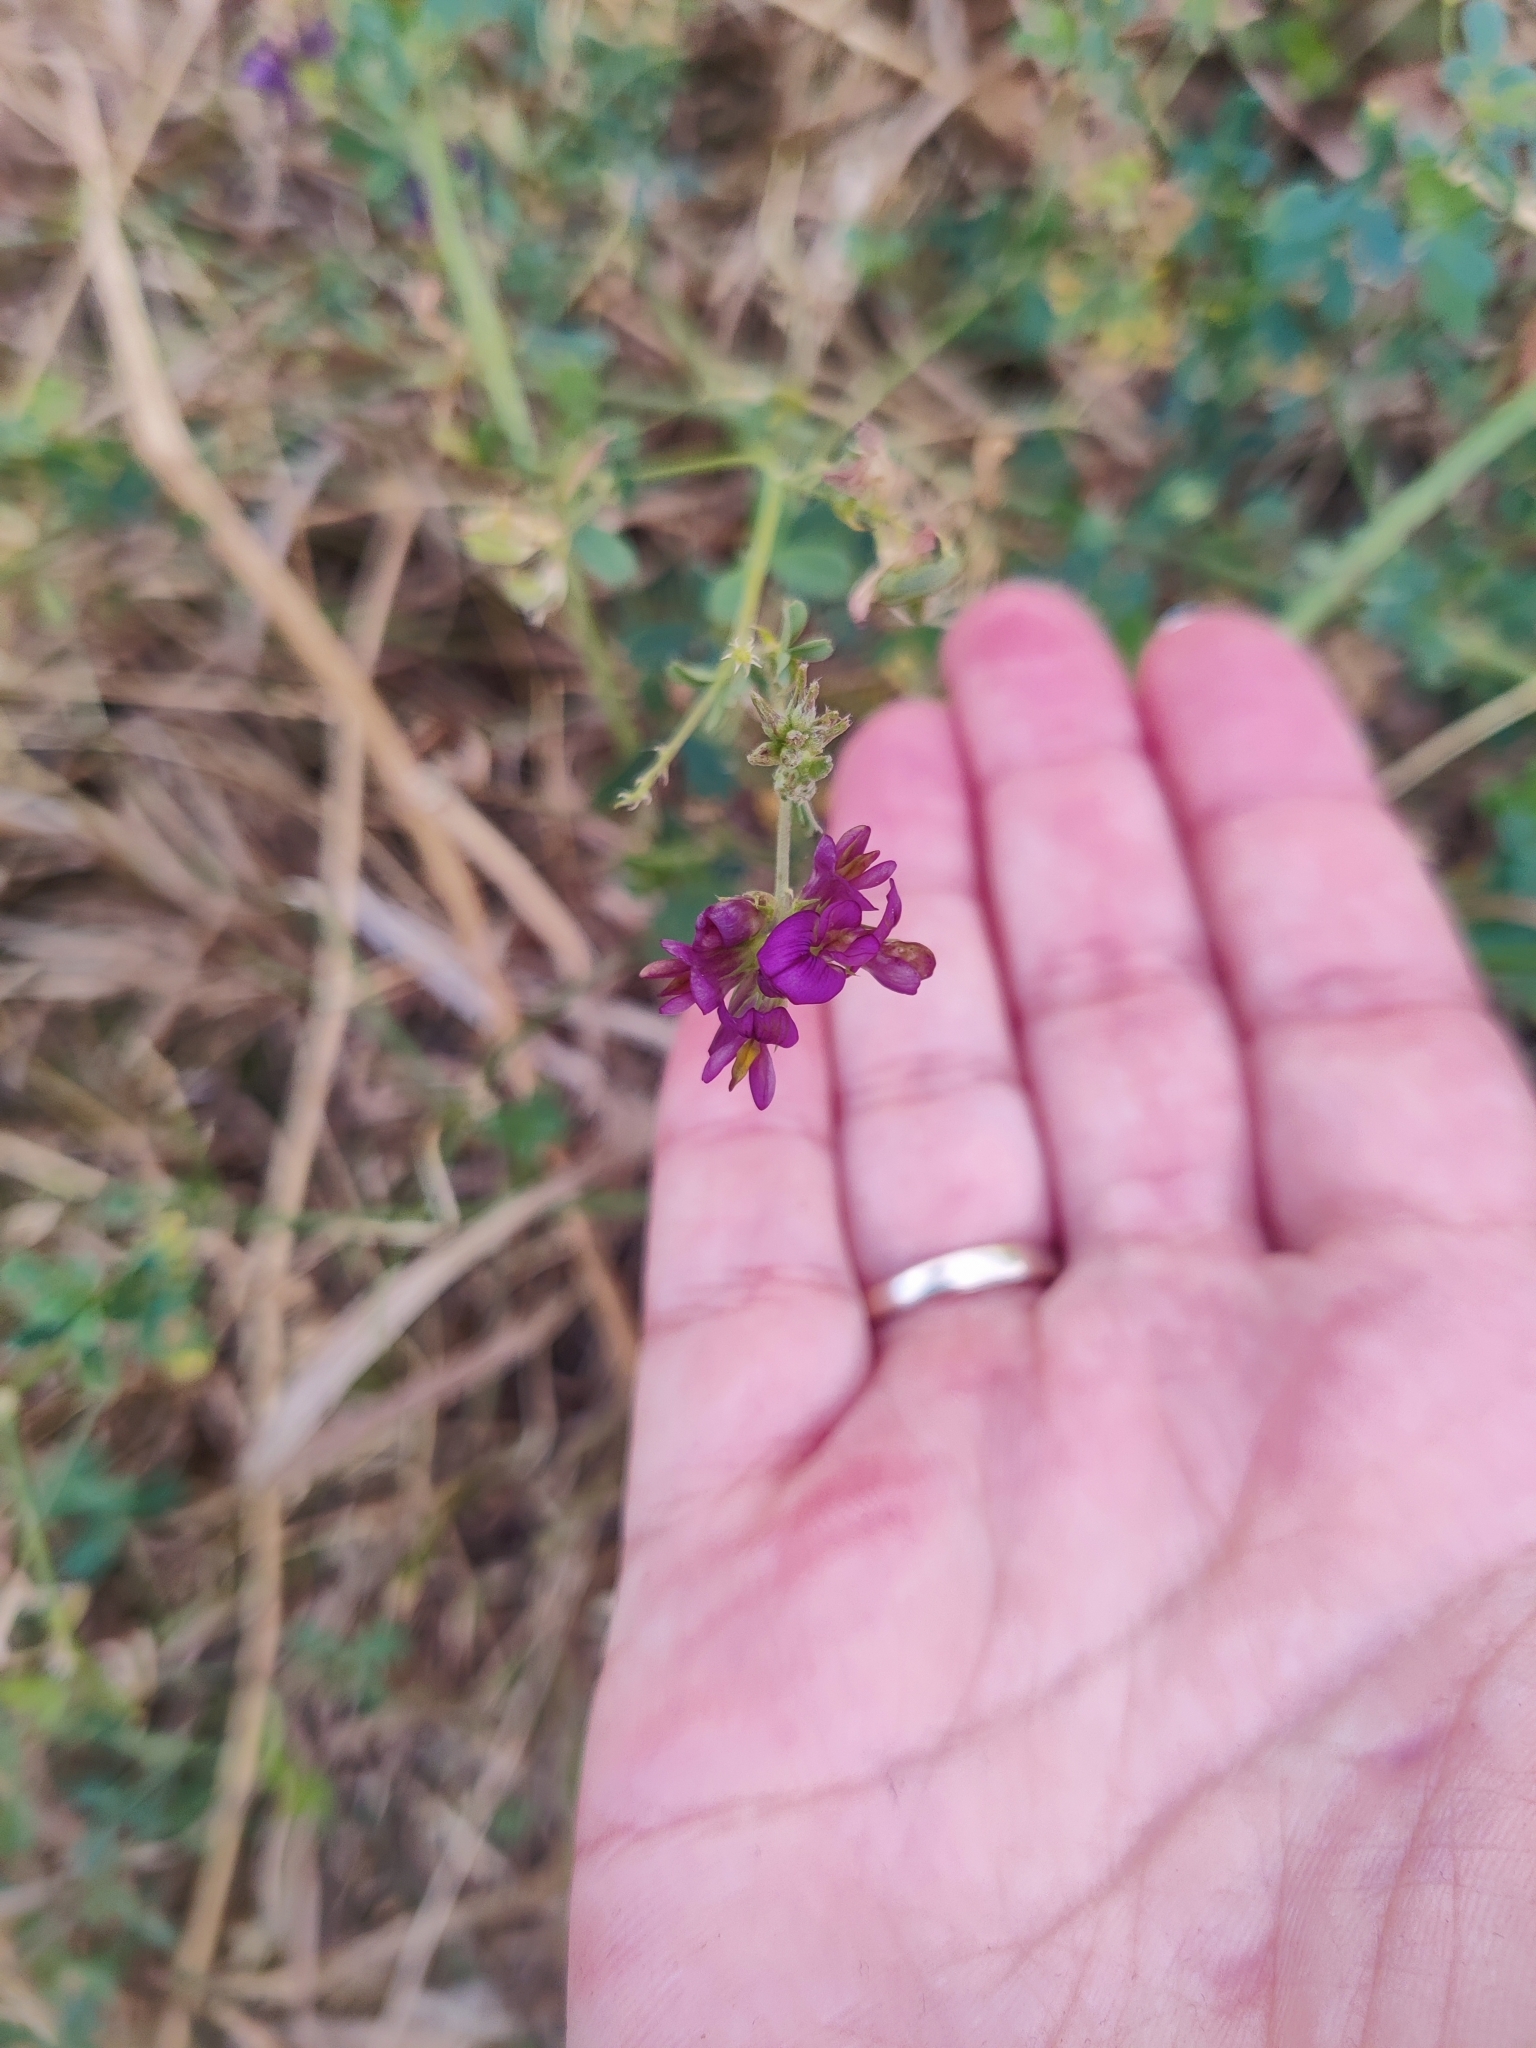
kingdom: Plantae
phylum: Tracheophyta
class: Magnoliopsida
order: Fabales
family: Fabaceae
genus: Medicago
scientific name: Medicago sativa
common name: Alfalfa
